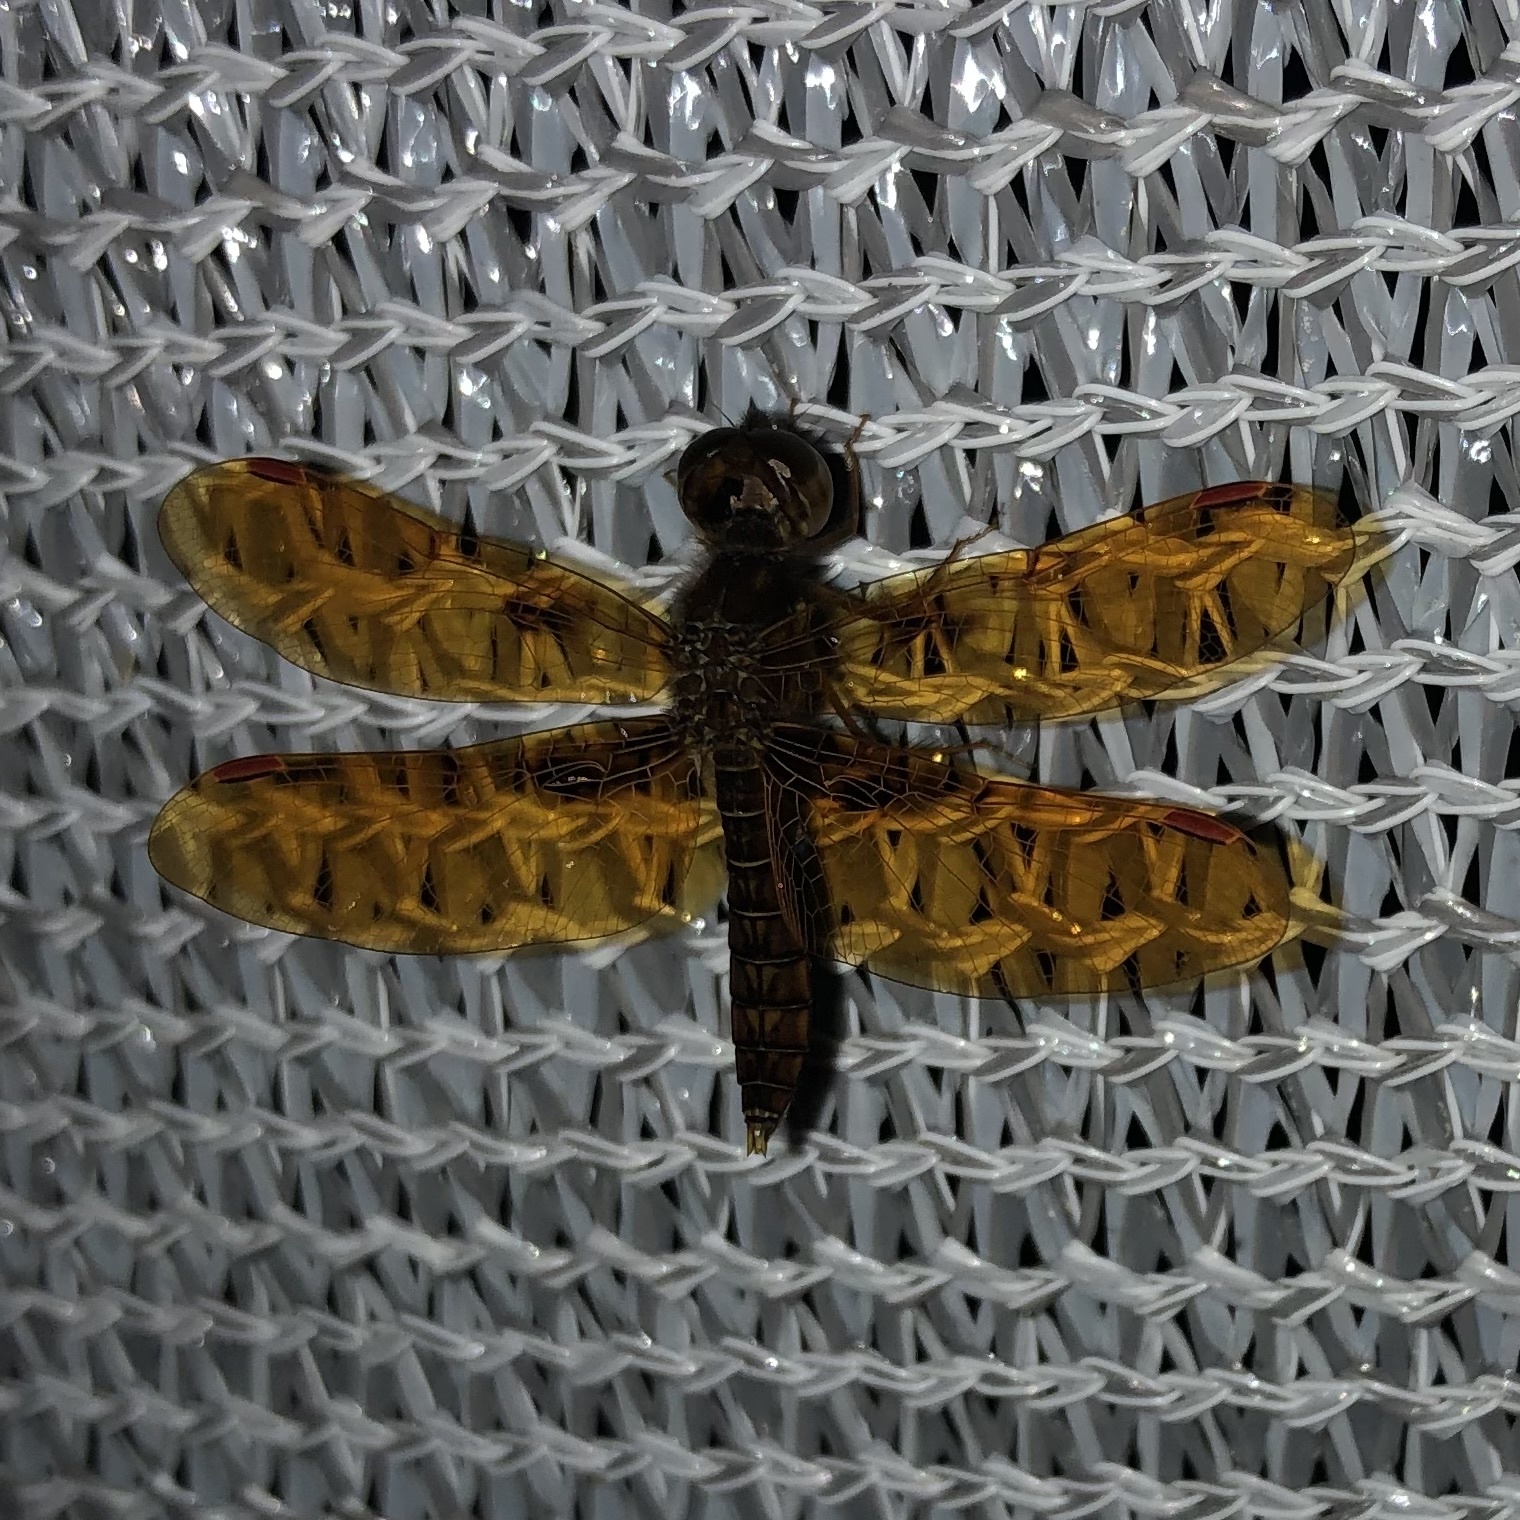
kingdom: Animalia
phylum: Arthropoda
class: Insecta
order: Odonata
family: Libellulidae
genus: Perithemis
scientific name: Perithemis tenera
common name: Eastern amberwing
